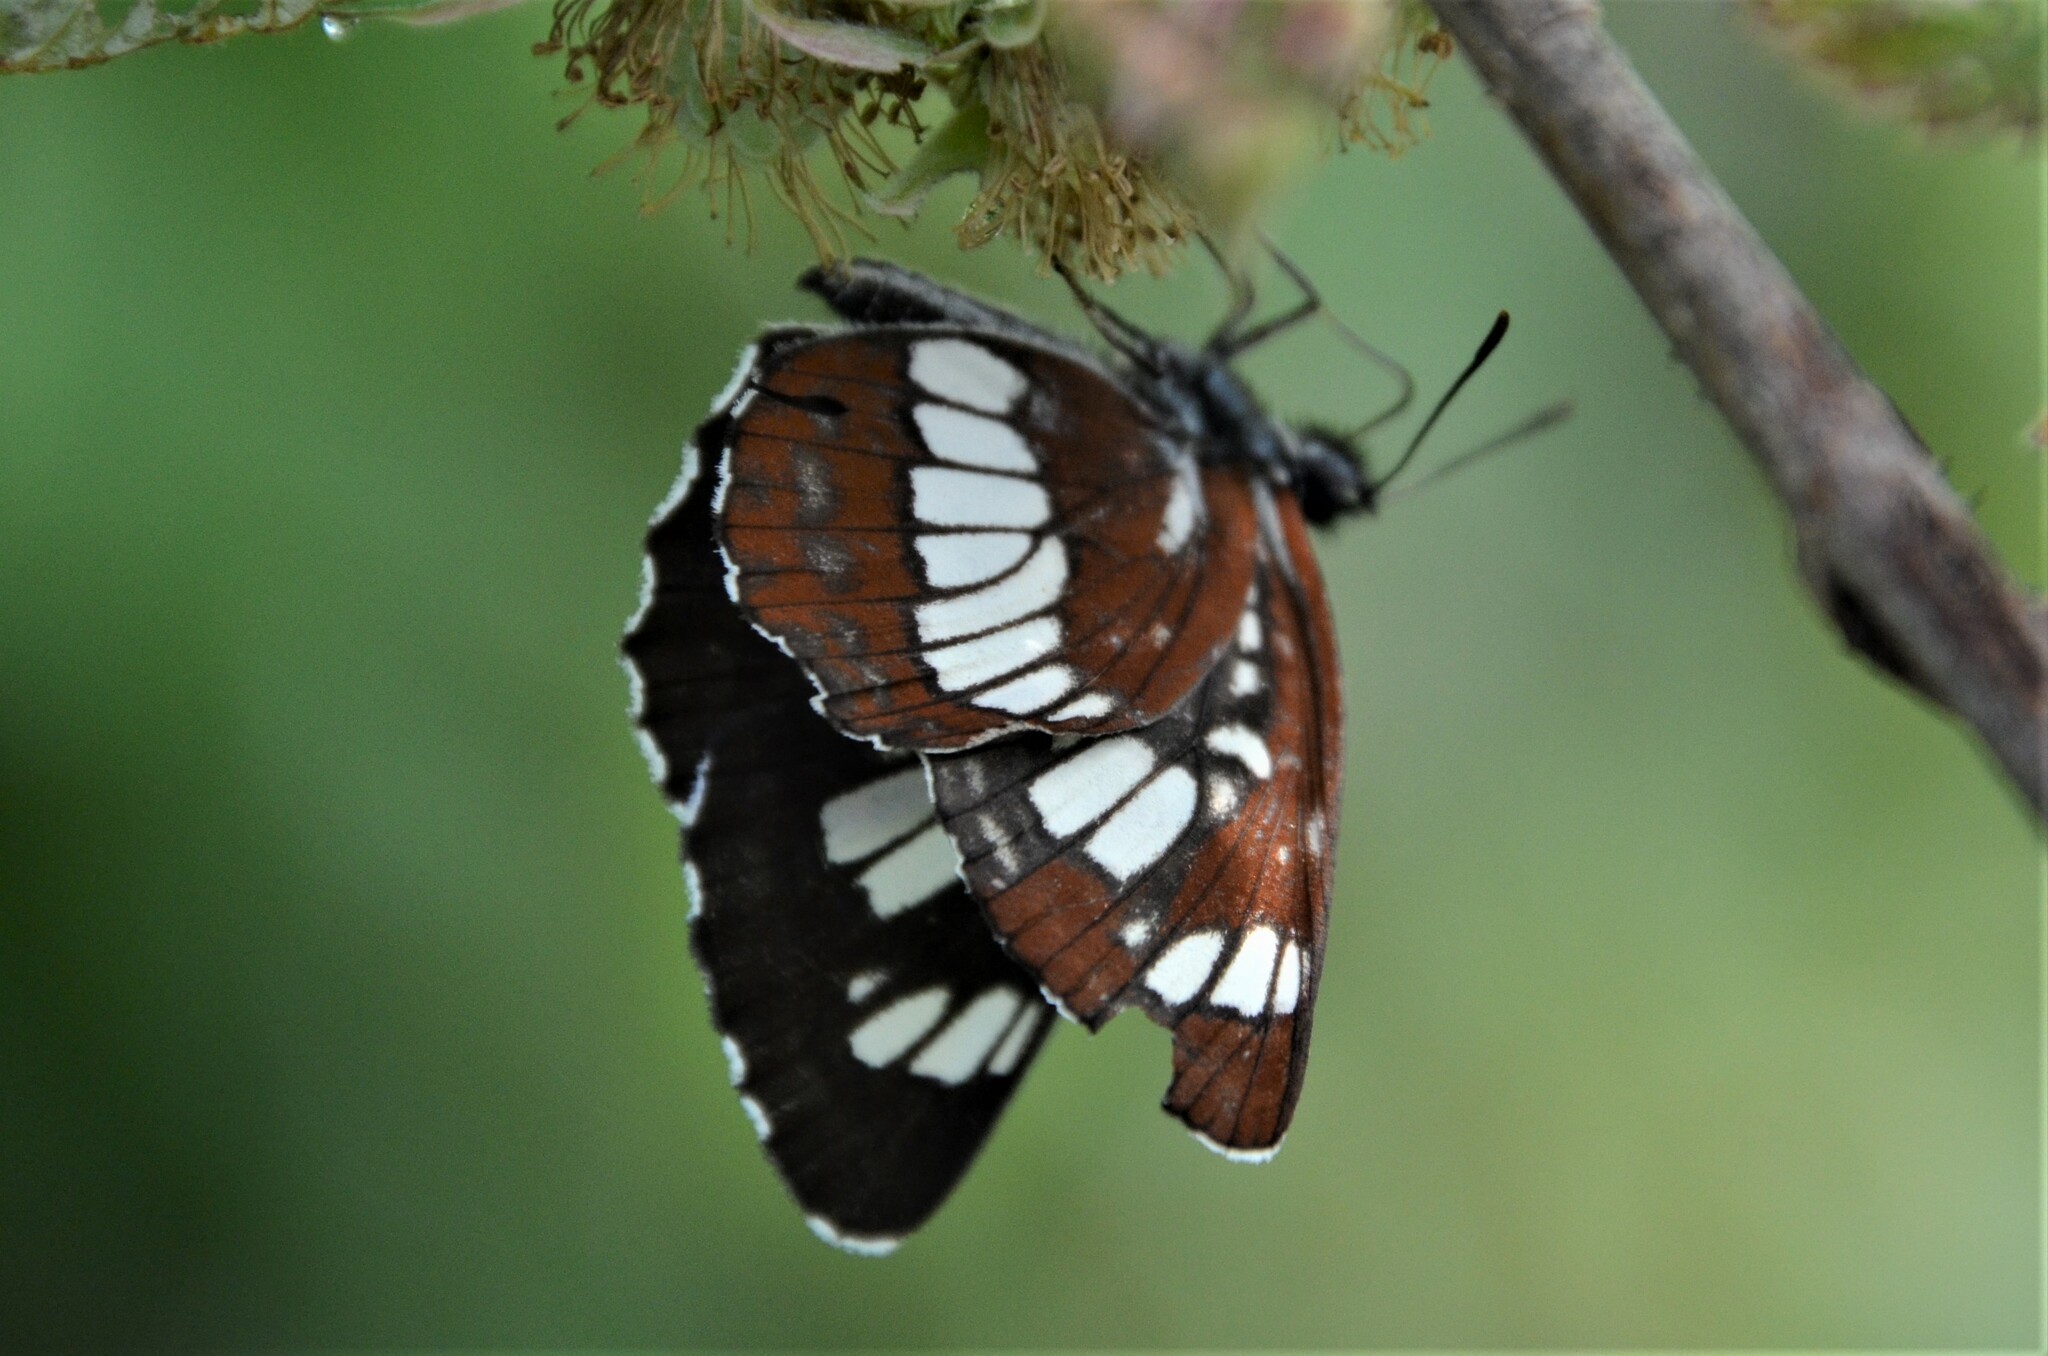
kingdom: Animalia
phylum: Arthropoda
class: Insecta
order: Lepidoptera
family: Nymphalidae
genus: Neptis
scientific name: Neptis rivularis
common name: Hungarian glider
